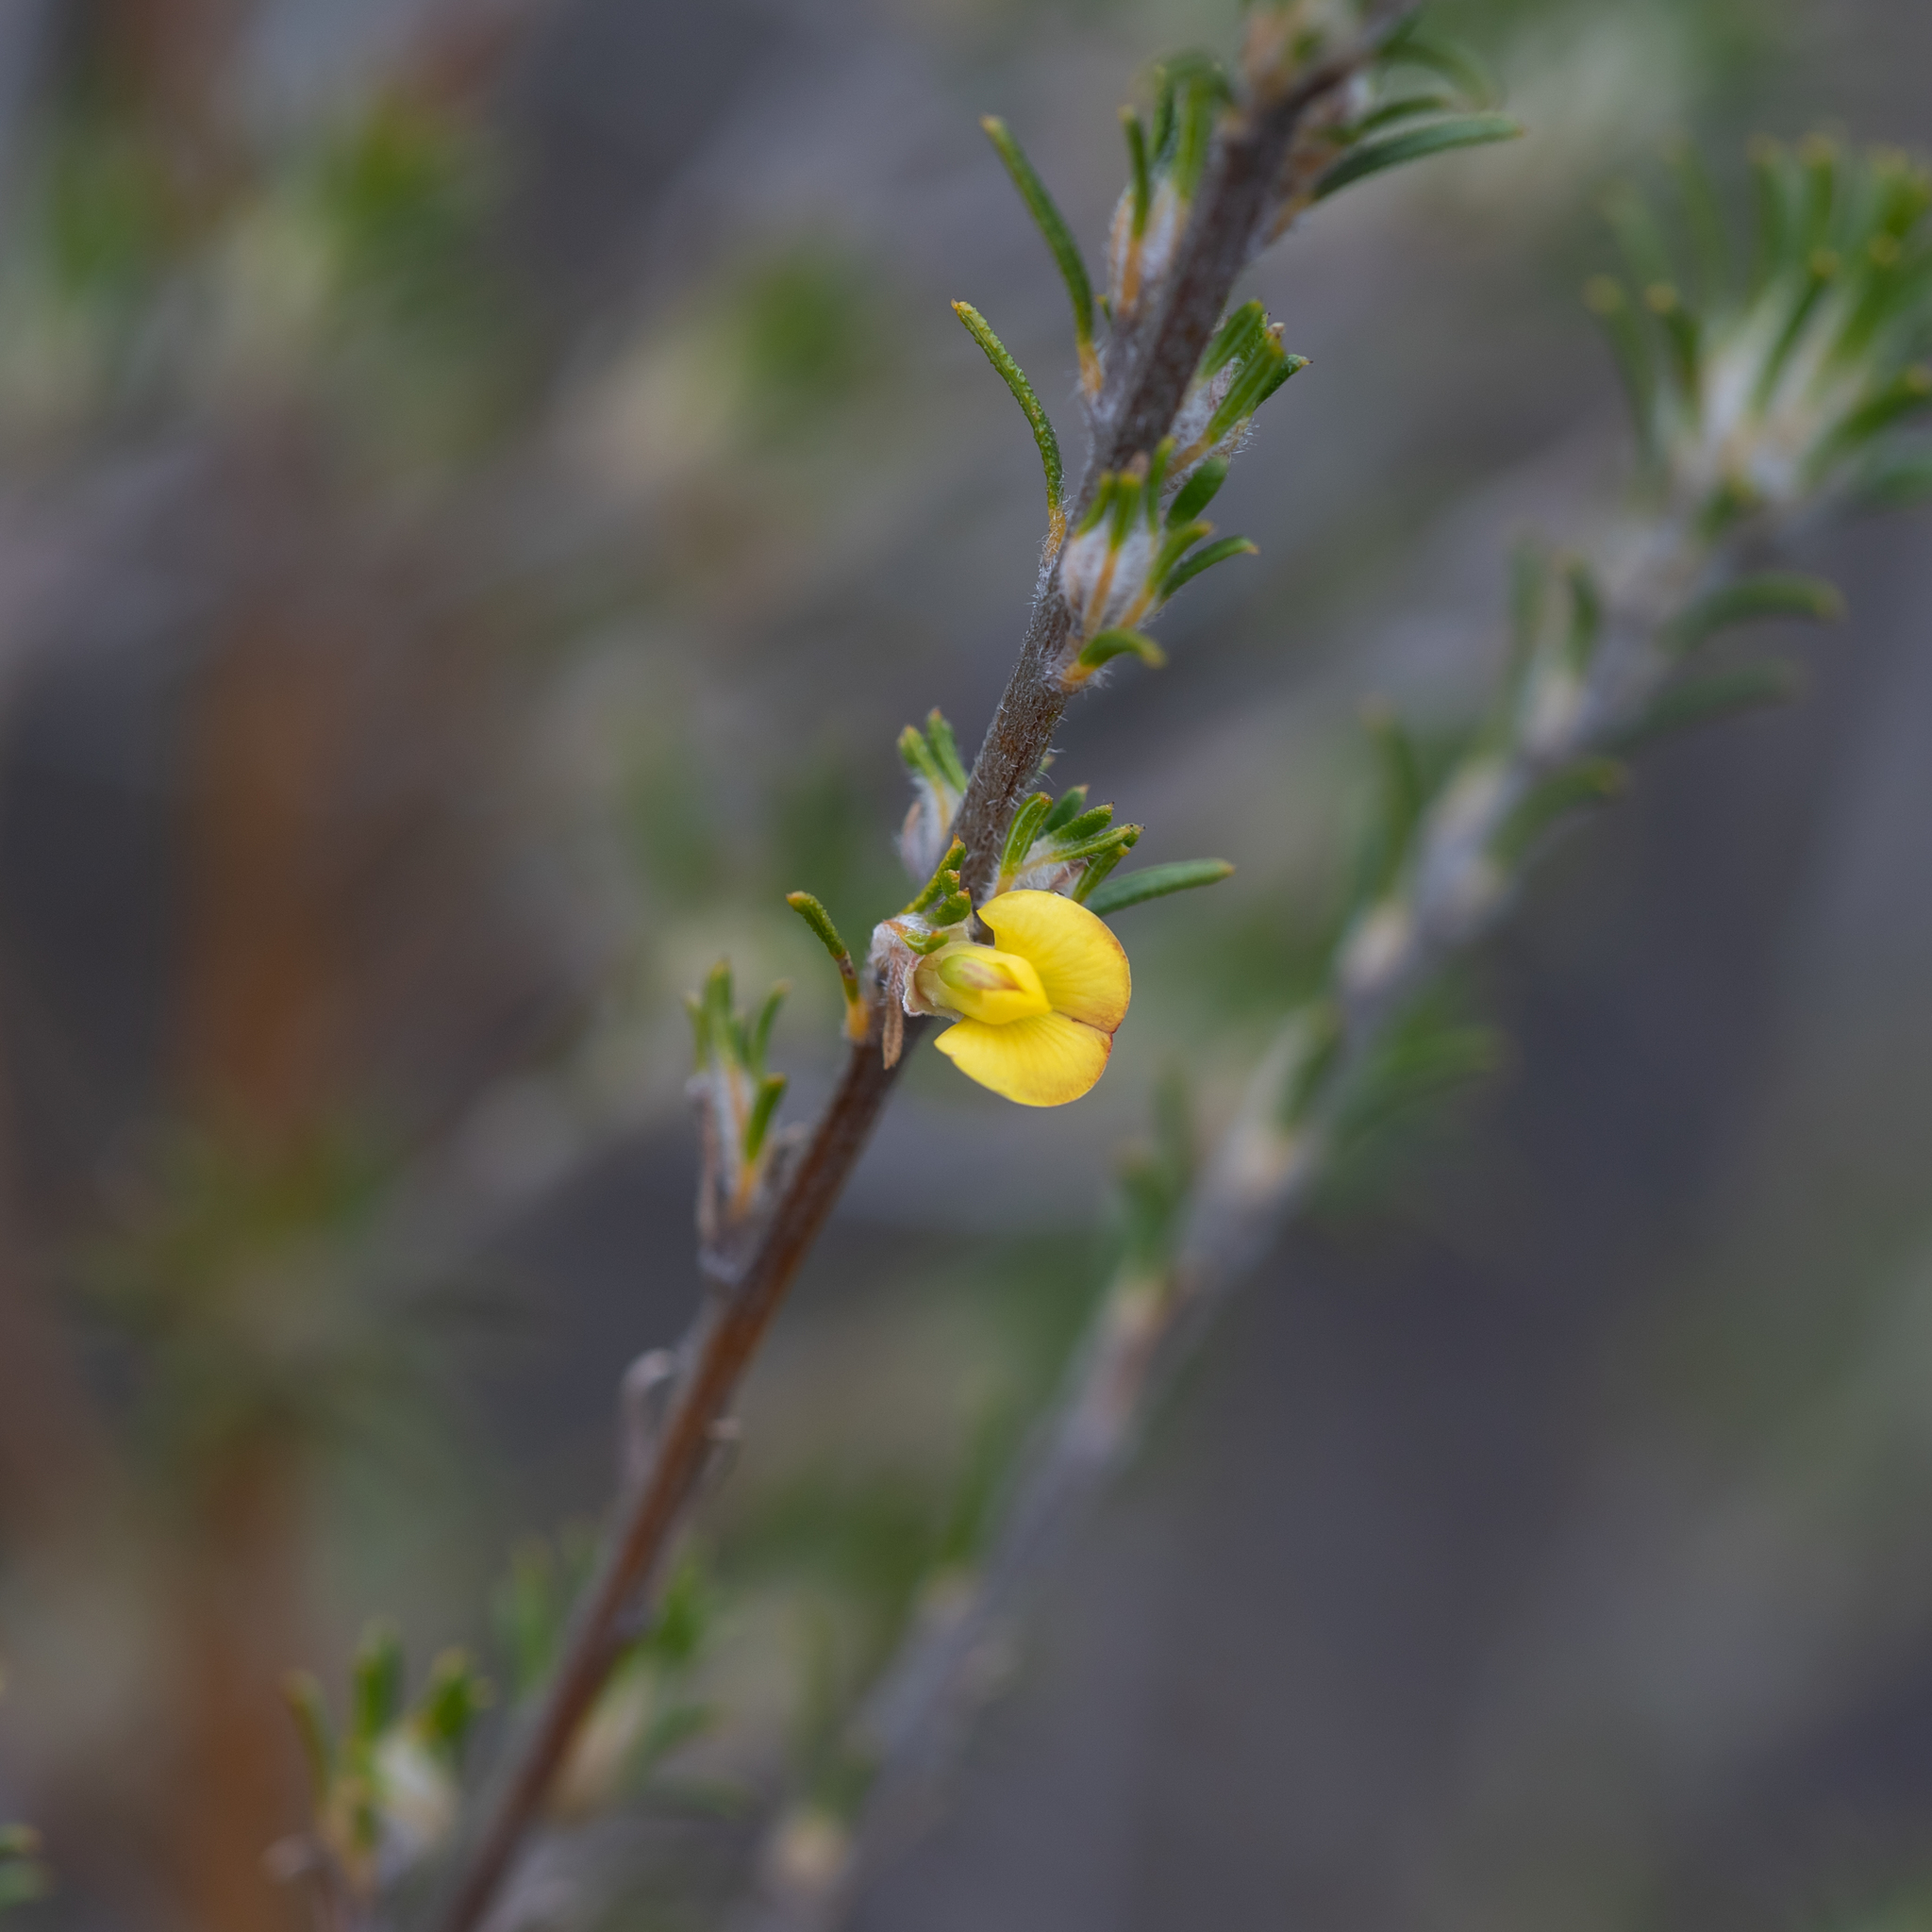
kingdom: Plantae
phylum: Tracheophyta
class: Magnoliopsida
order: Fabales
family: Fabaceae
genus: Phyllota
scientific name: Phyllota pleurandroides
